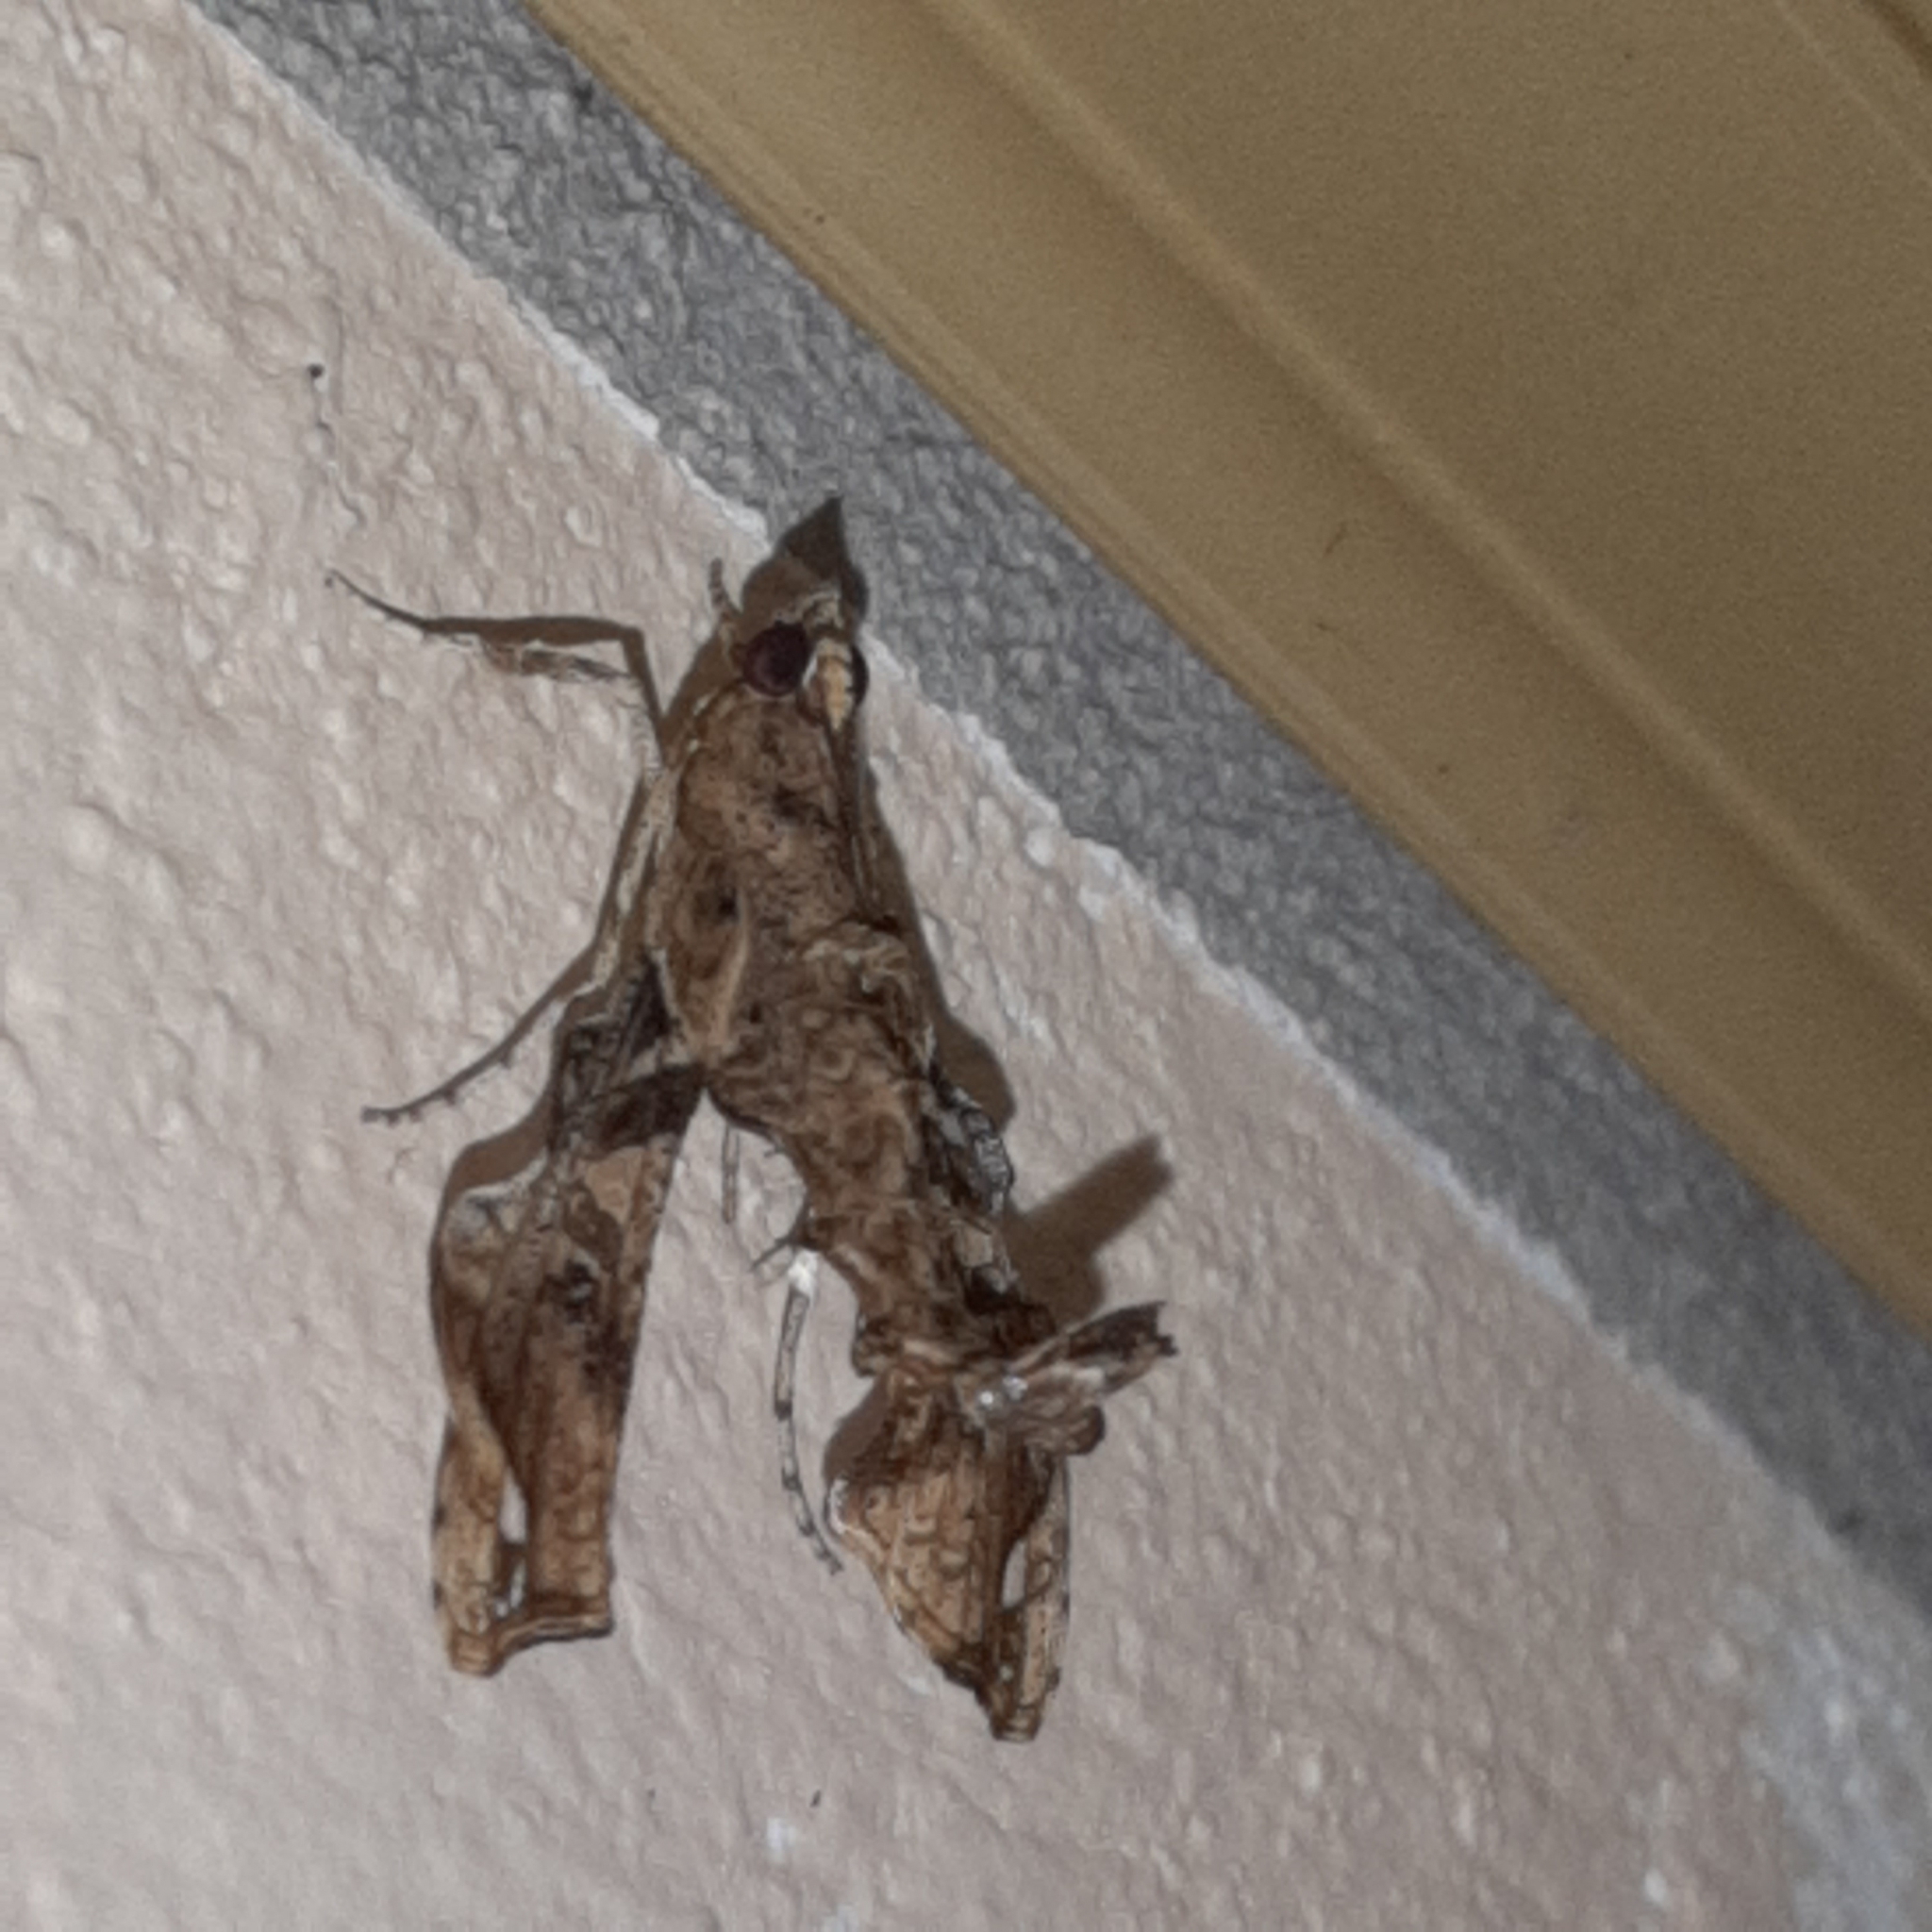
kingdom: Animalia
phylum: Arthropoda
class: Insecta
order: Lepidoptera
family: Crambidae
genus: Terastia
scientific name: Terastia meticulosalis
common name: Moth
